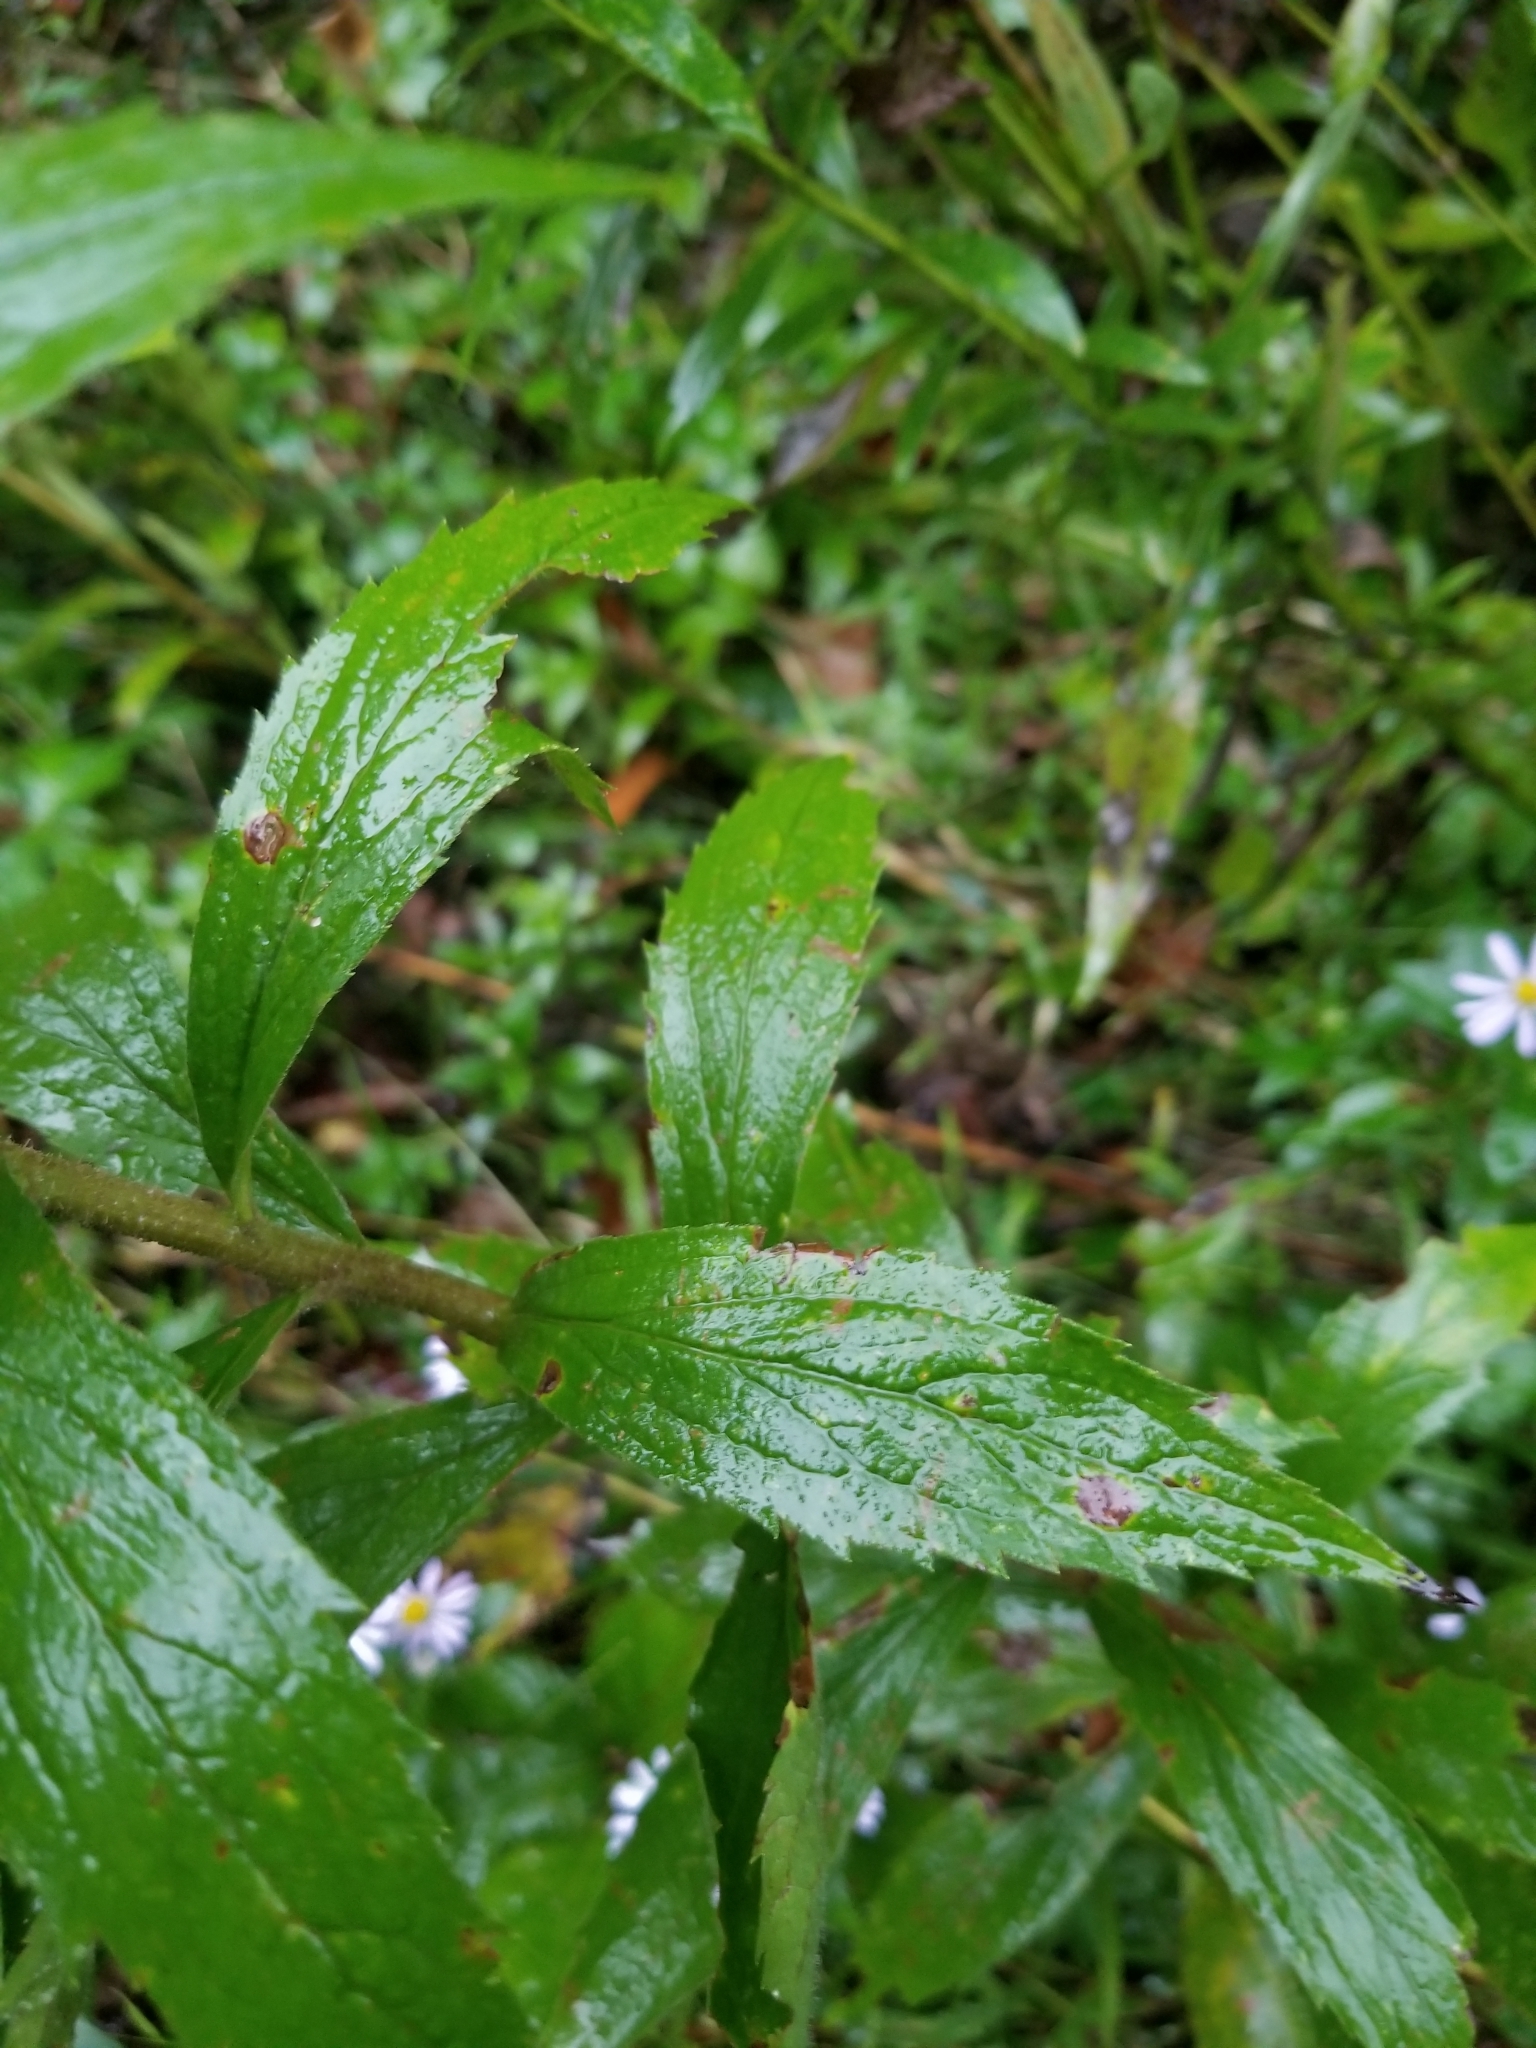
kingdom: Plantae
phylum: Tracheophyta
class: Magnoliopsida
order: Asterales
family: Asteraceae
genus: Solidago
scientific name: Solidago rugosa
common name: Rough-stemmed goldenrod
